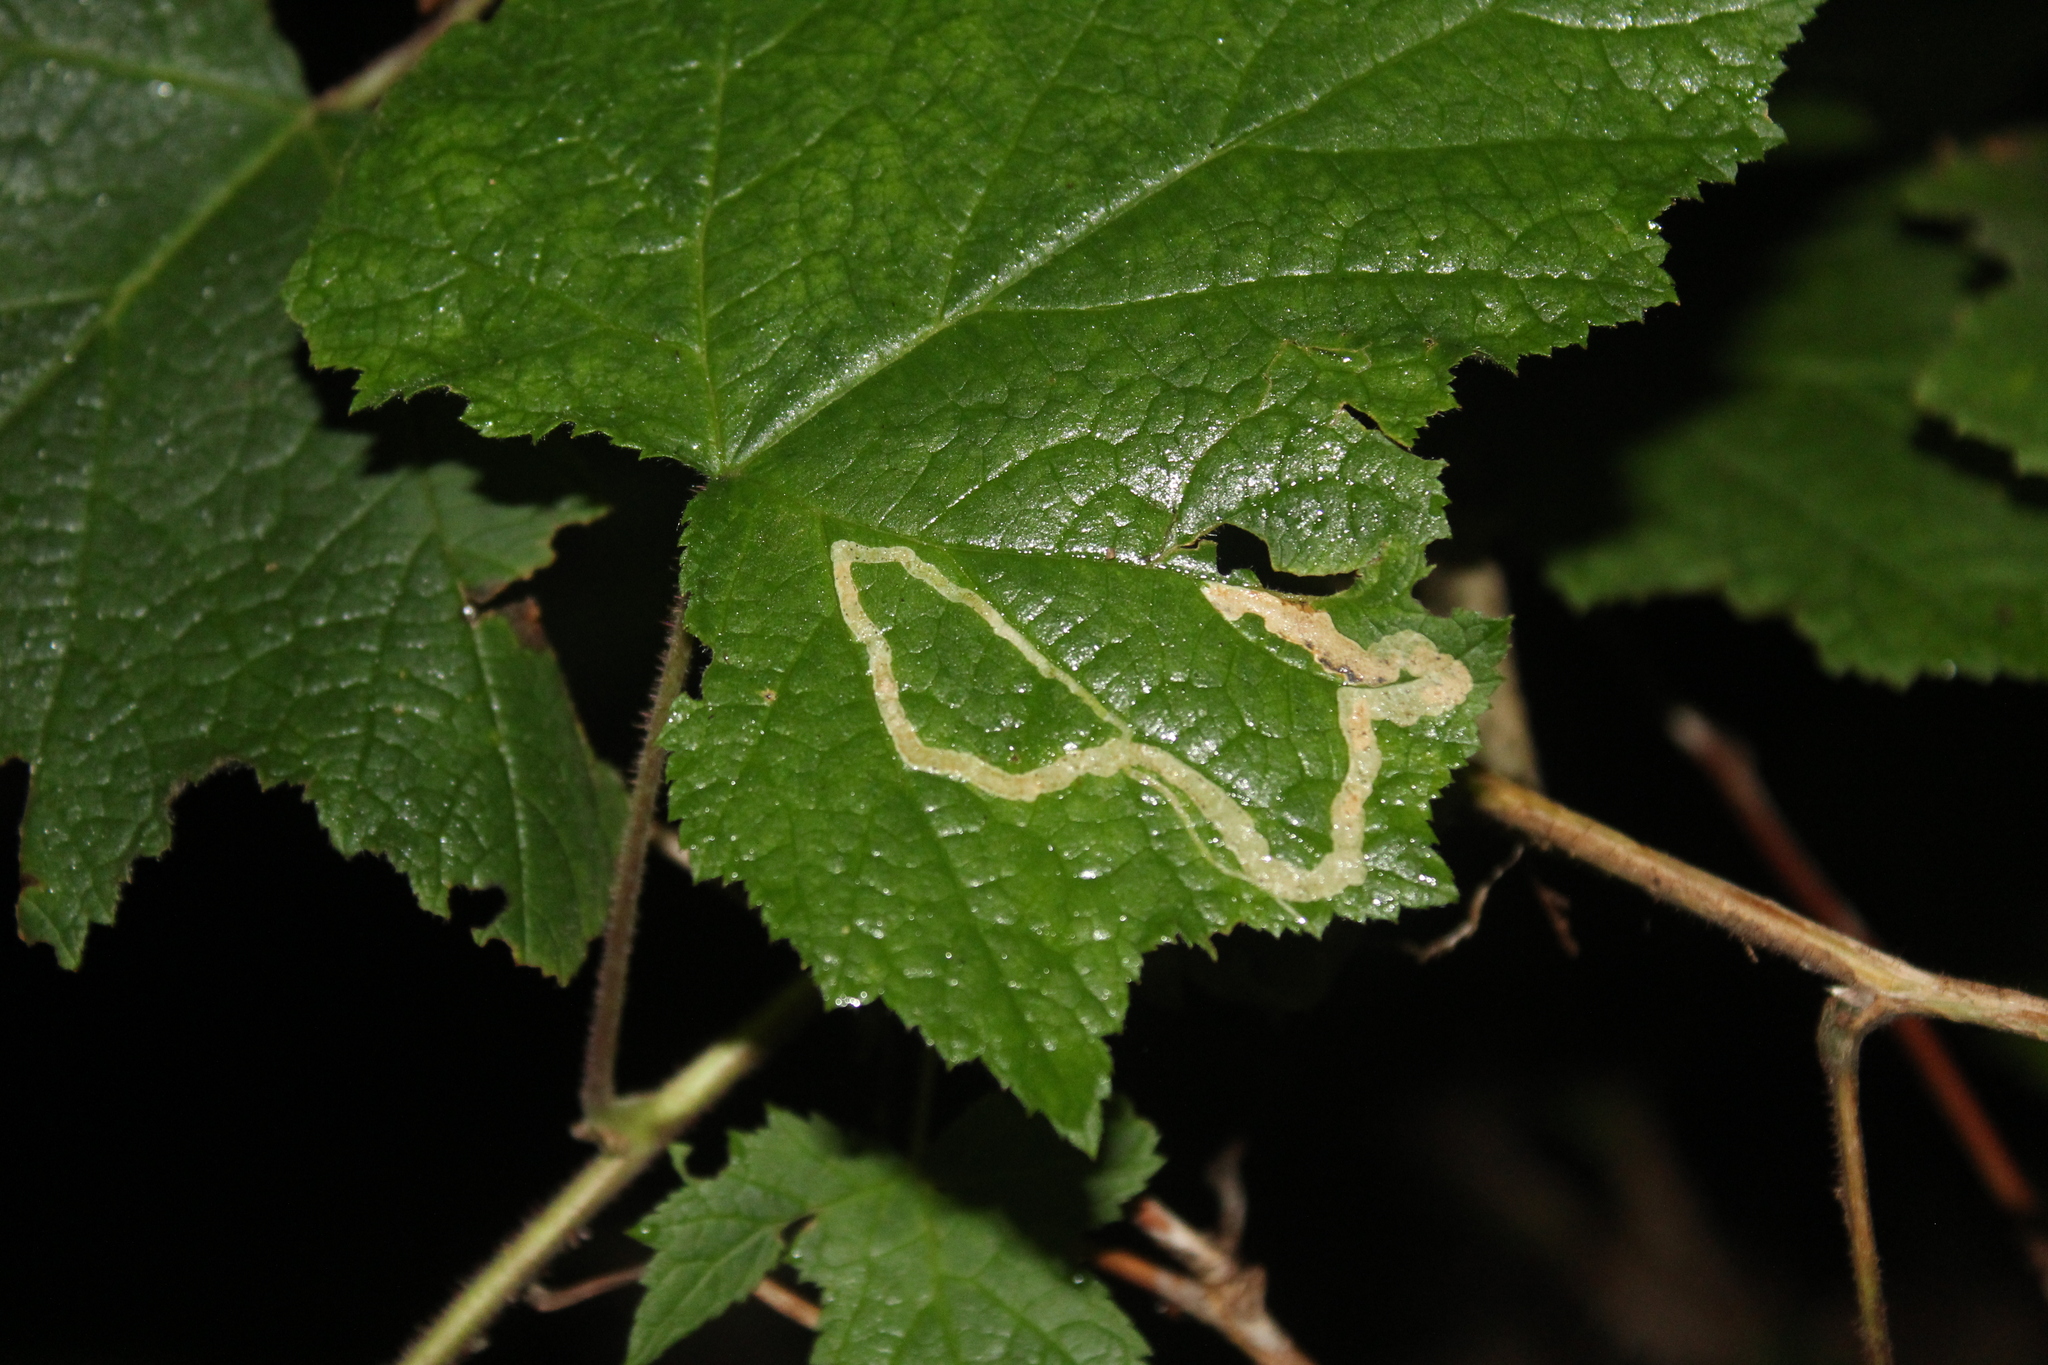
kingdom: Animalia
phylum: Arthropoda
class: Insecta
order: Diptera
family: Agromyzidae
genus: Agromyza
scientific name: Agromyza vockerothi
